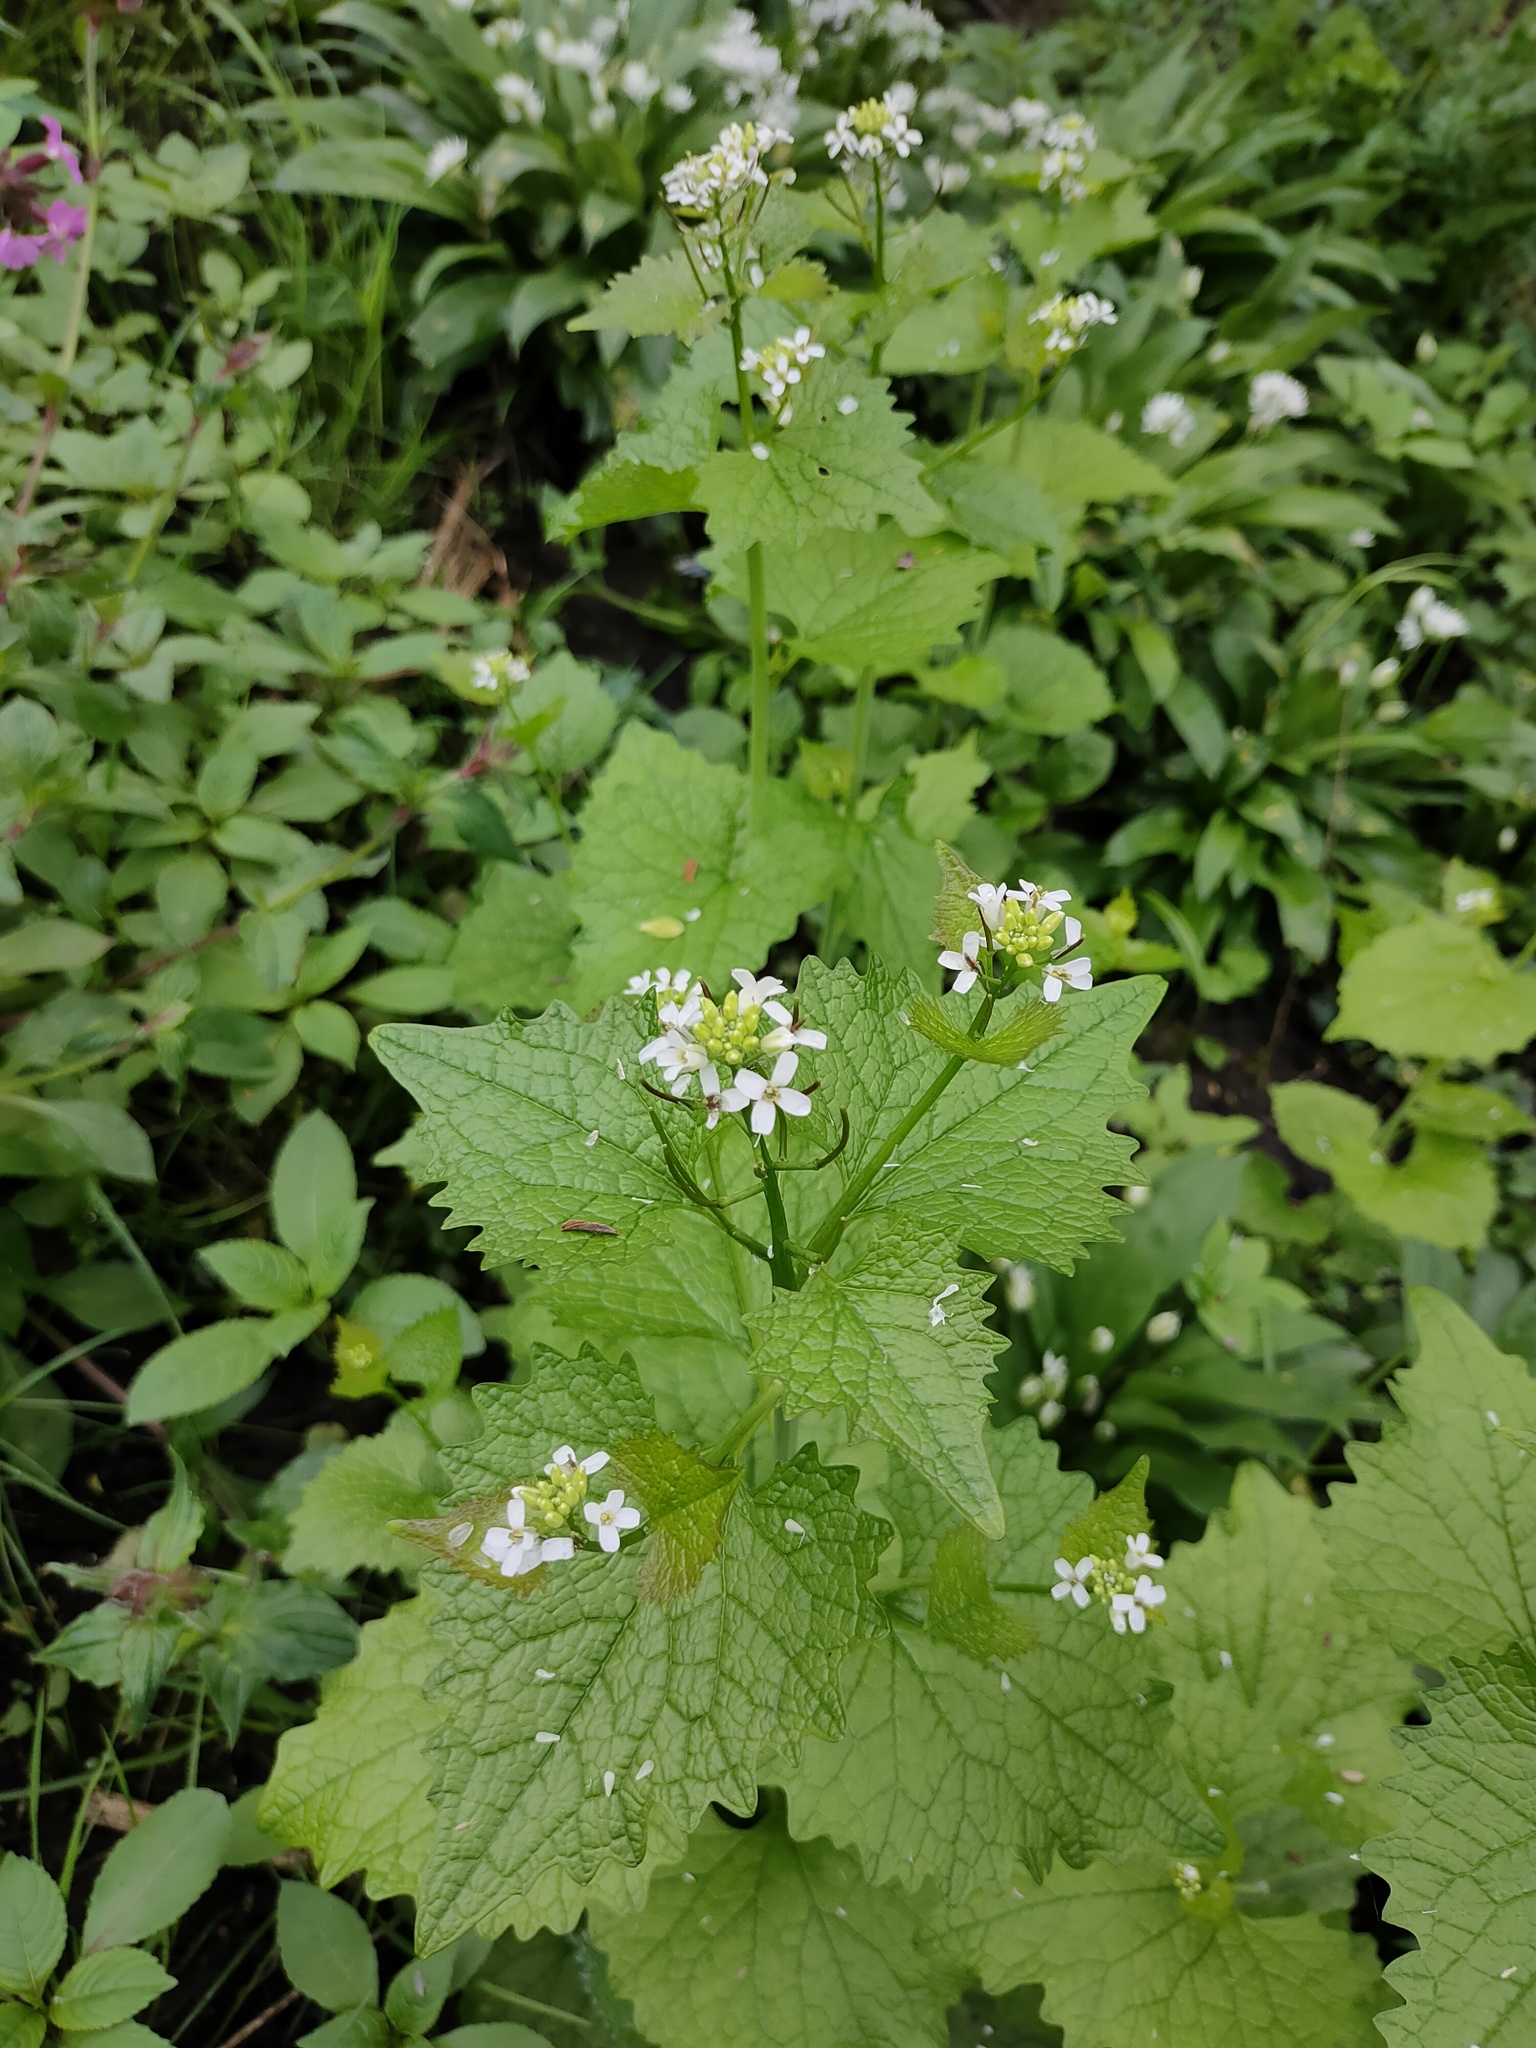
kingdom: Plantae
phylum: Tracheophyta
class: Magnoliopsida
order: Brassicales
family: Brassicaceae
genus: Alliaria
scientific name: Alliaria petiolata
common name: Garlic mustard
